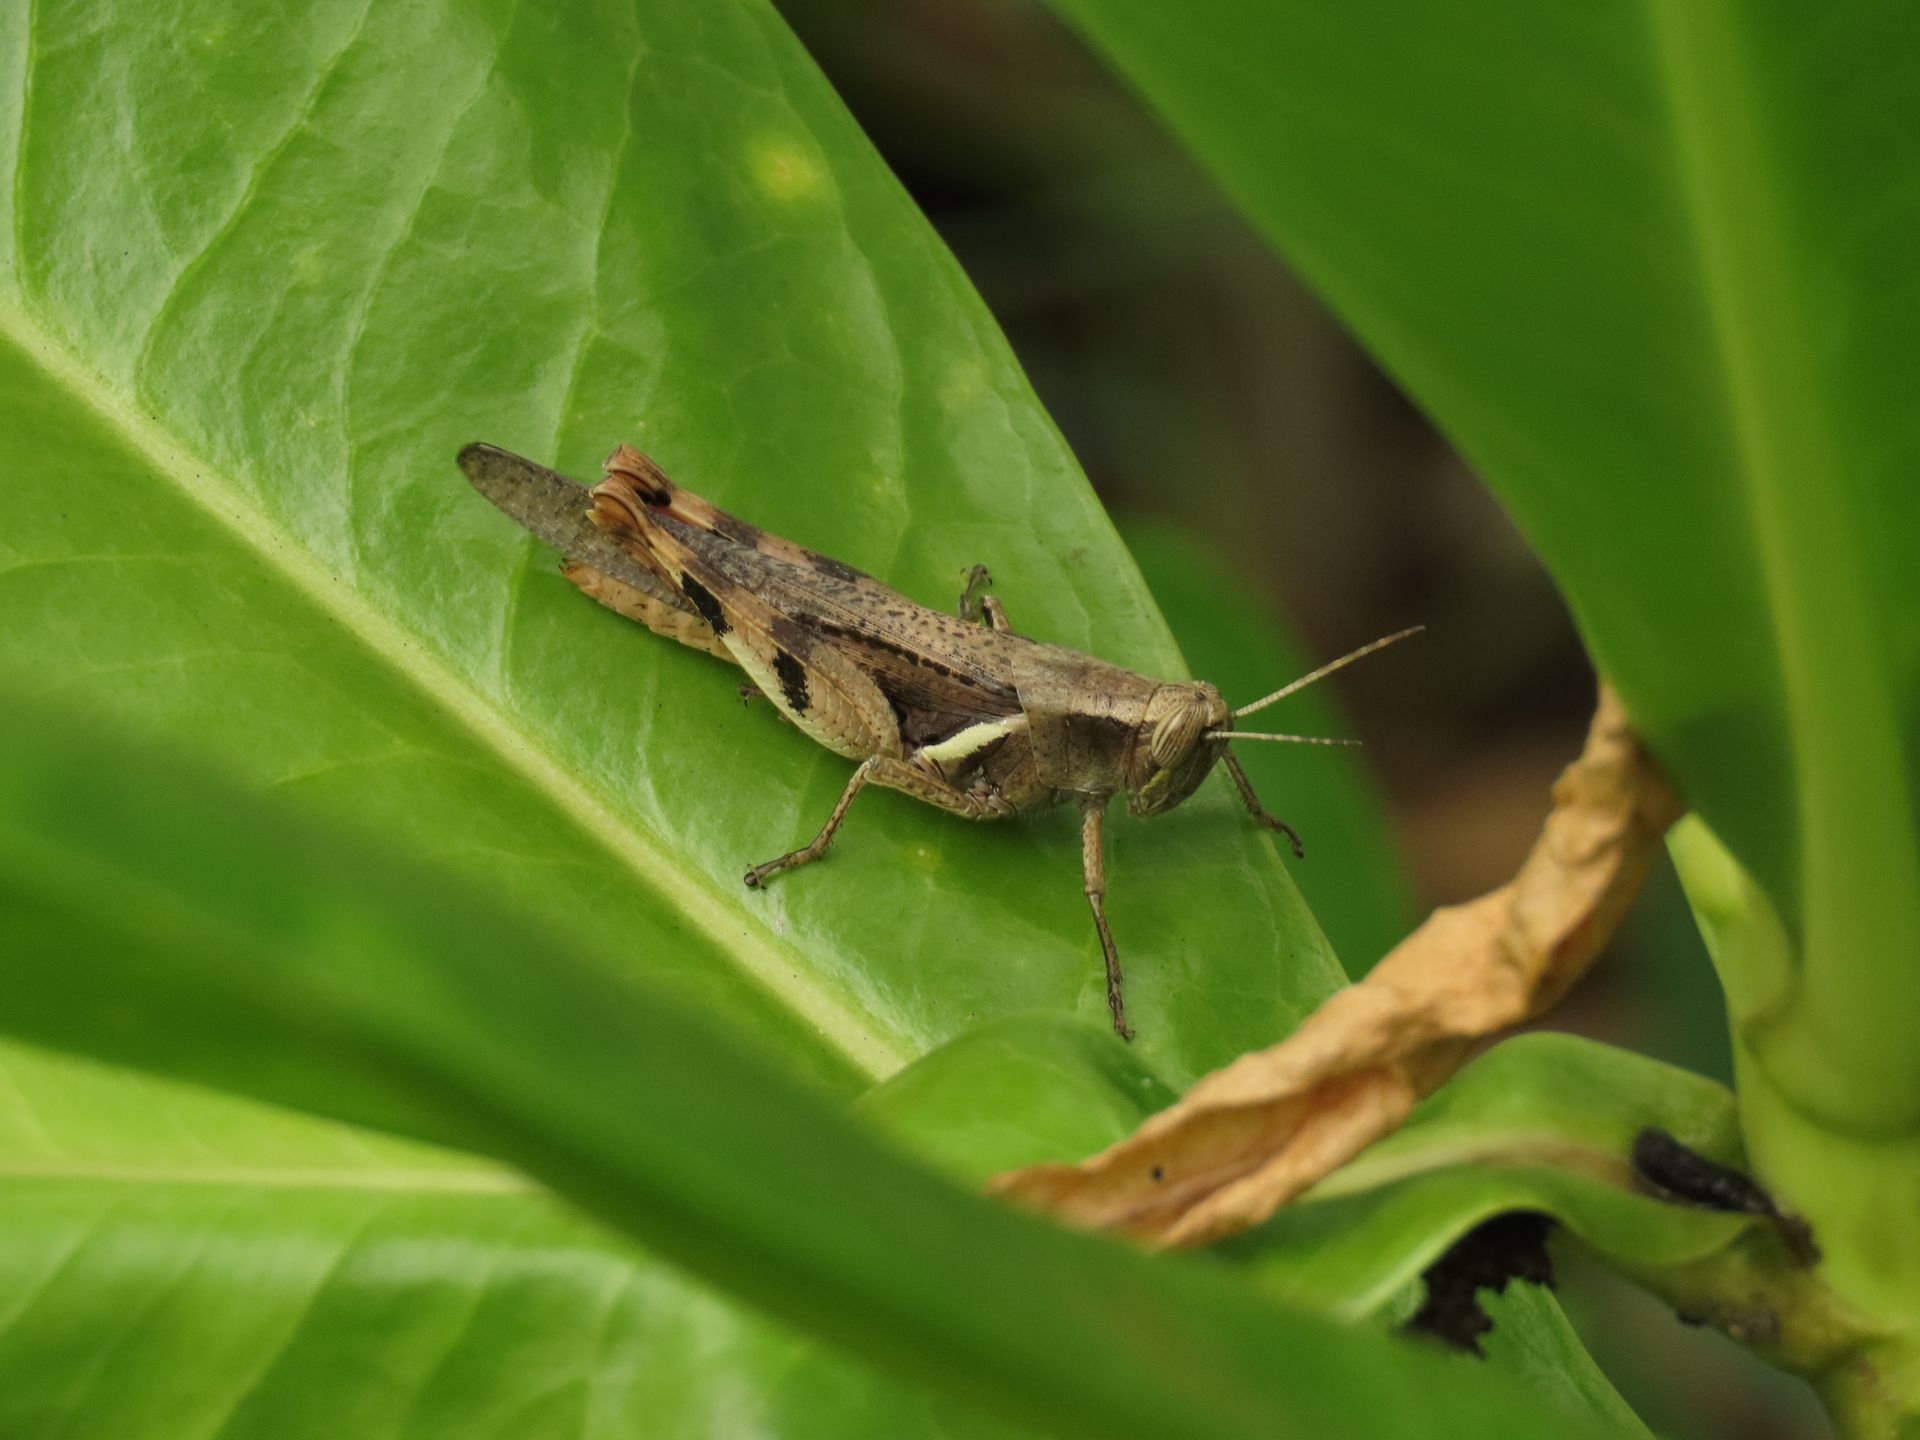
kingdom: Animalia
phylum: Arthropoda
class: Insecta
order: Orthoptera
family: Acrididae
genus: Stenocatantops
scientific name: Stenocatantops angustifrons
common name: Common tropical sharptail
